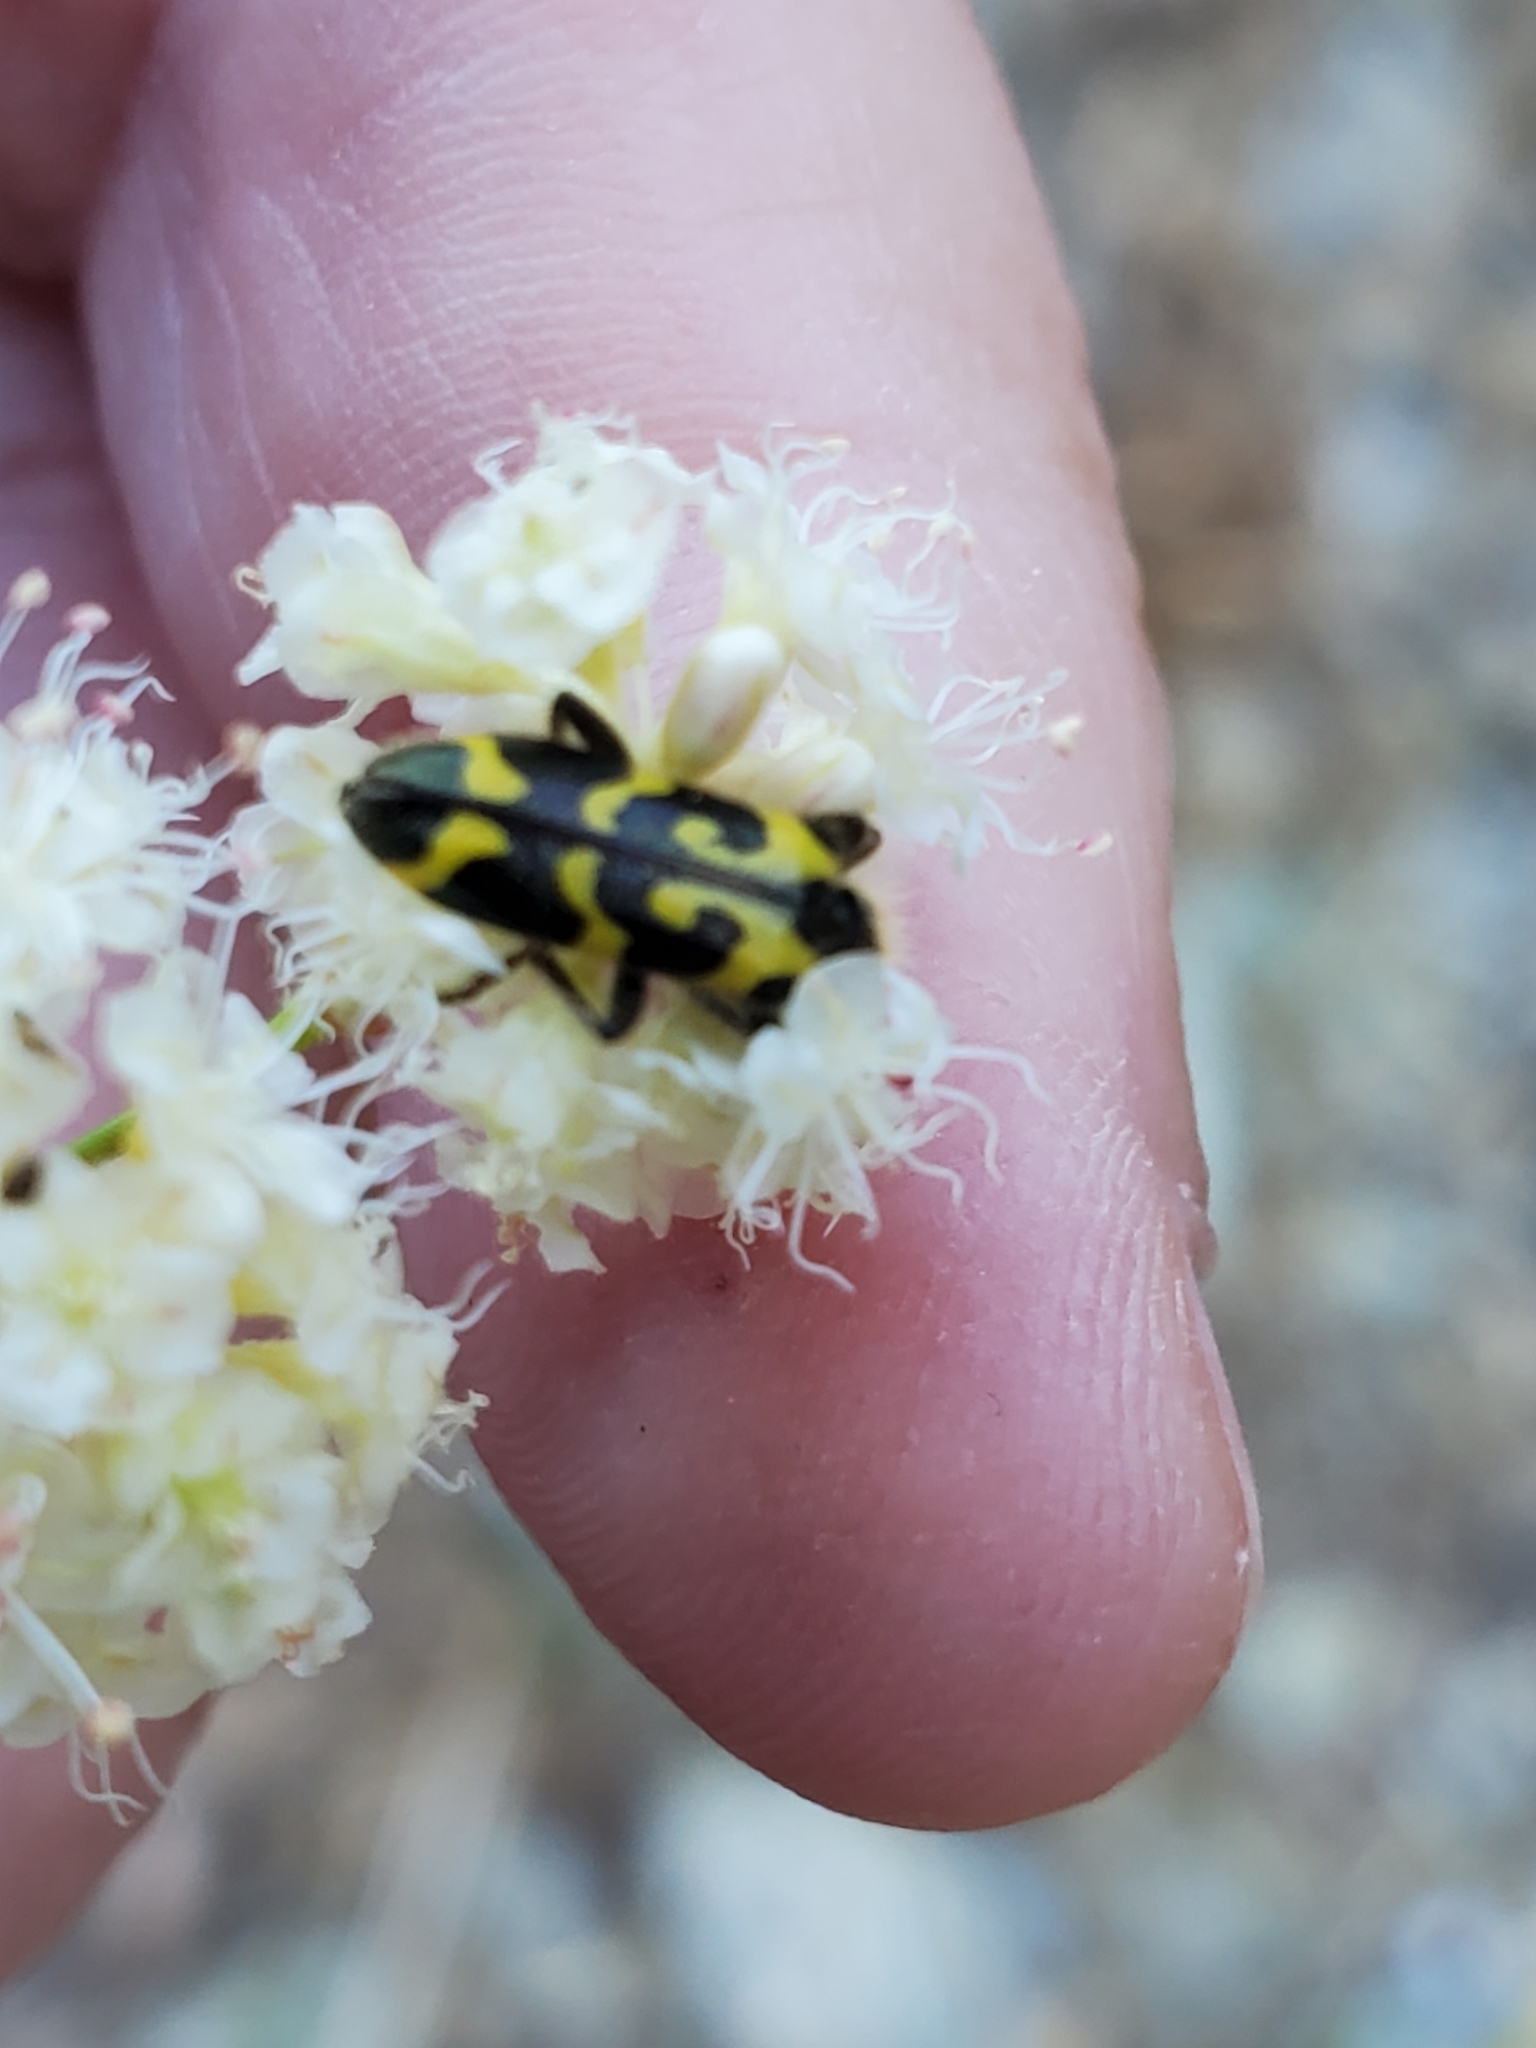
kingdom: Animalia
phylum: Arthropoda
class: Insecta
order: Coleoptera
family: Cleridae
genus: Trichodes
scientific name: Trichodes ornatus
